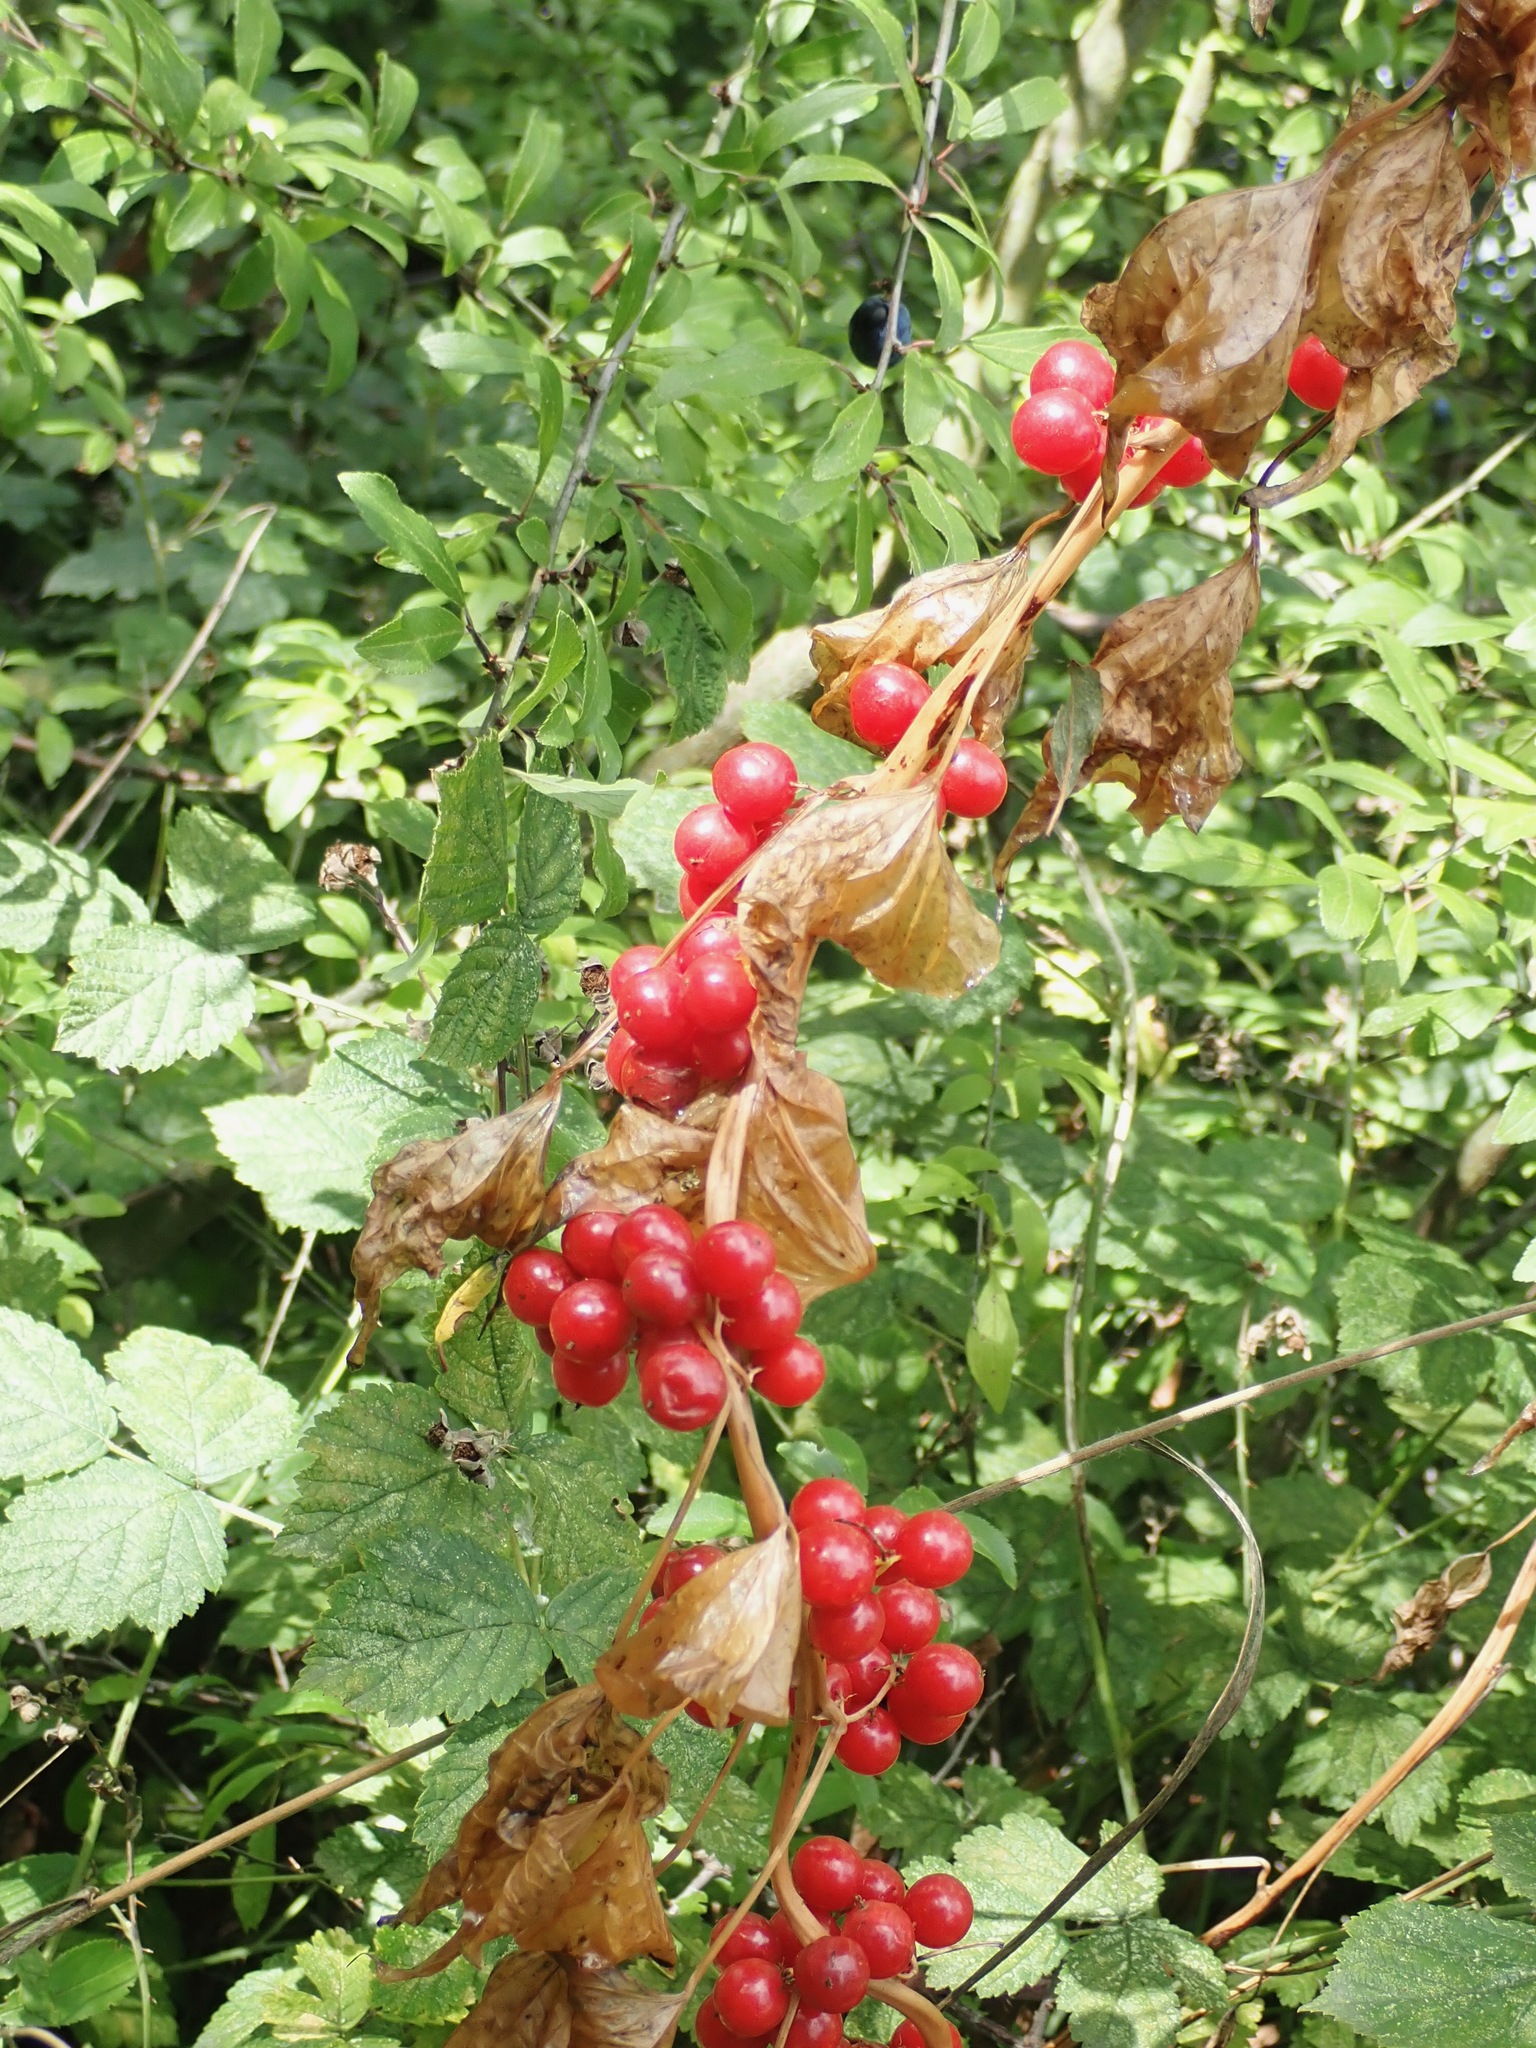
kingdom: Plantae
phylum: Tracheophyta
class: Liliopsida
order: Dioscoreales
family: Dioscoreaceae
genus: Dioscorea
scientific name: Dioscorea communis
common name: Black-bindweed
